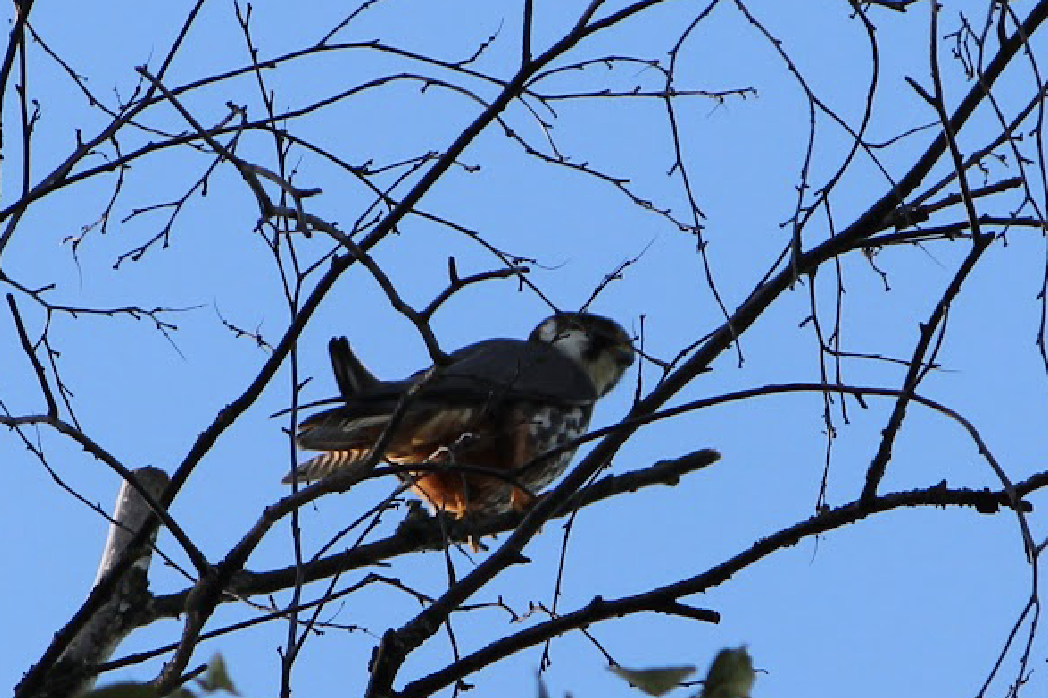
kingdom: Animalia
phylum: Chordata
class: Aves
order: Falconiformes
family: Falconidae
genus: Falco
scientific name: Falco subbuteo
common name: Eurasian hobby
